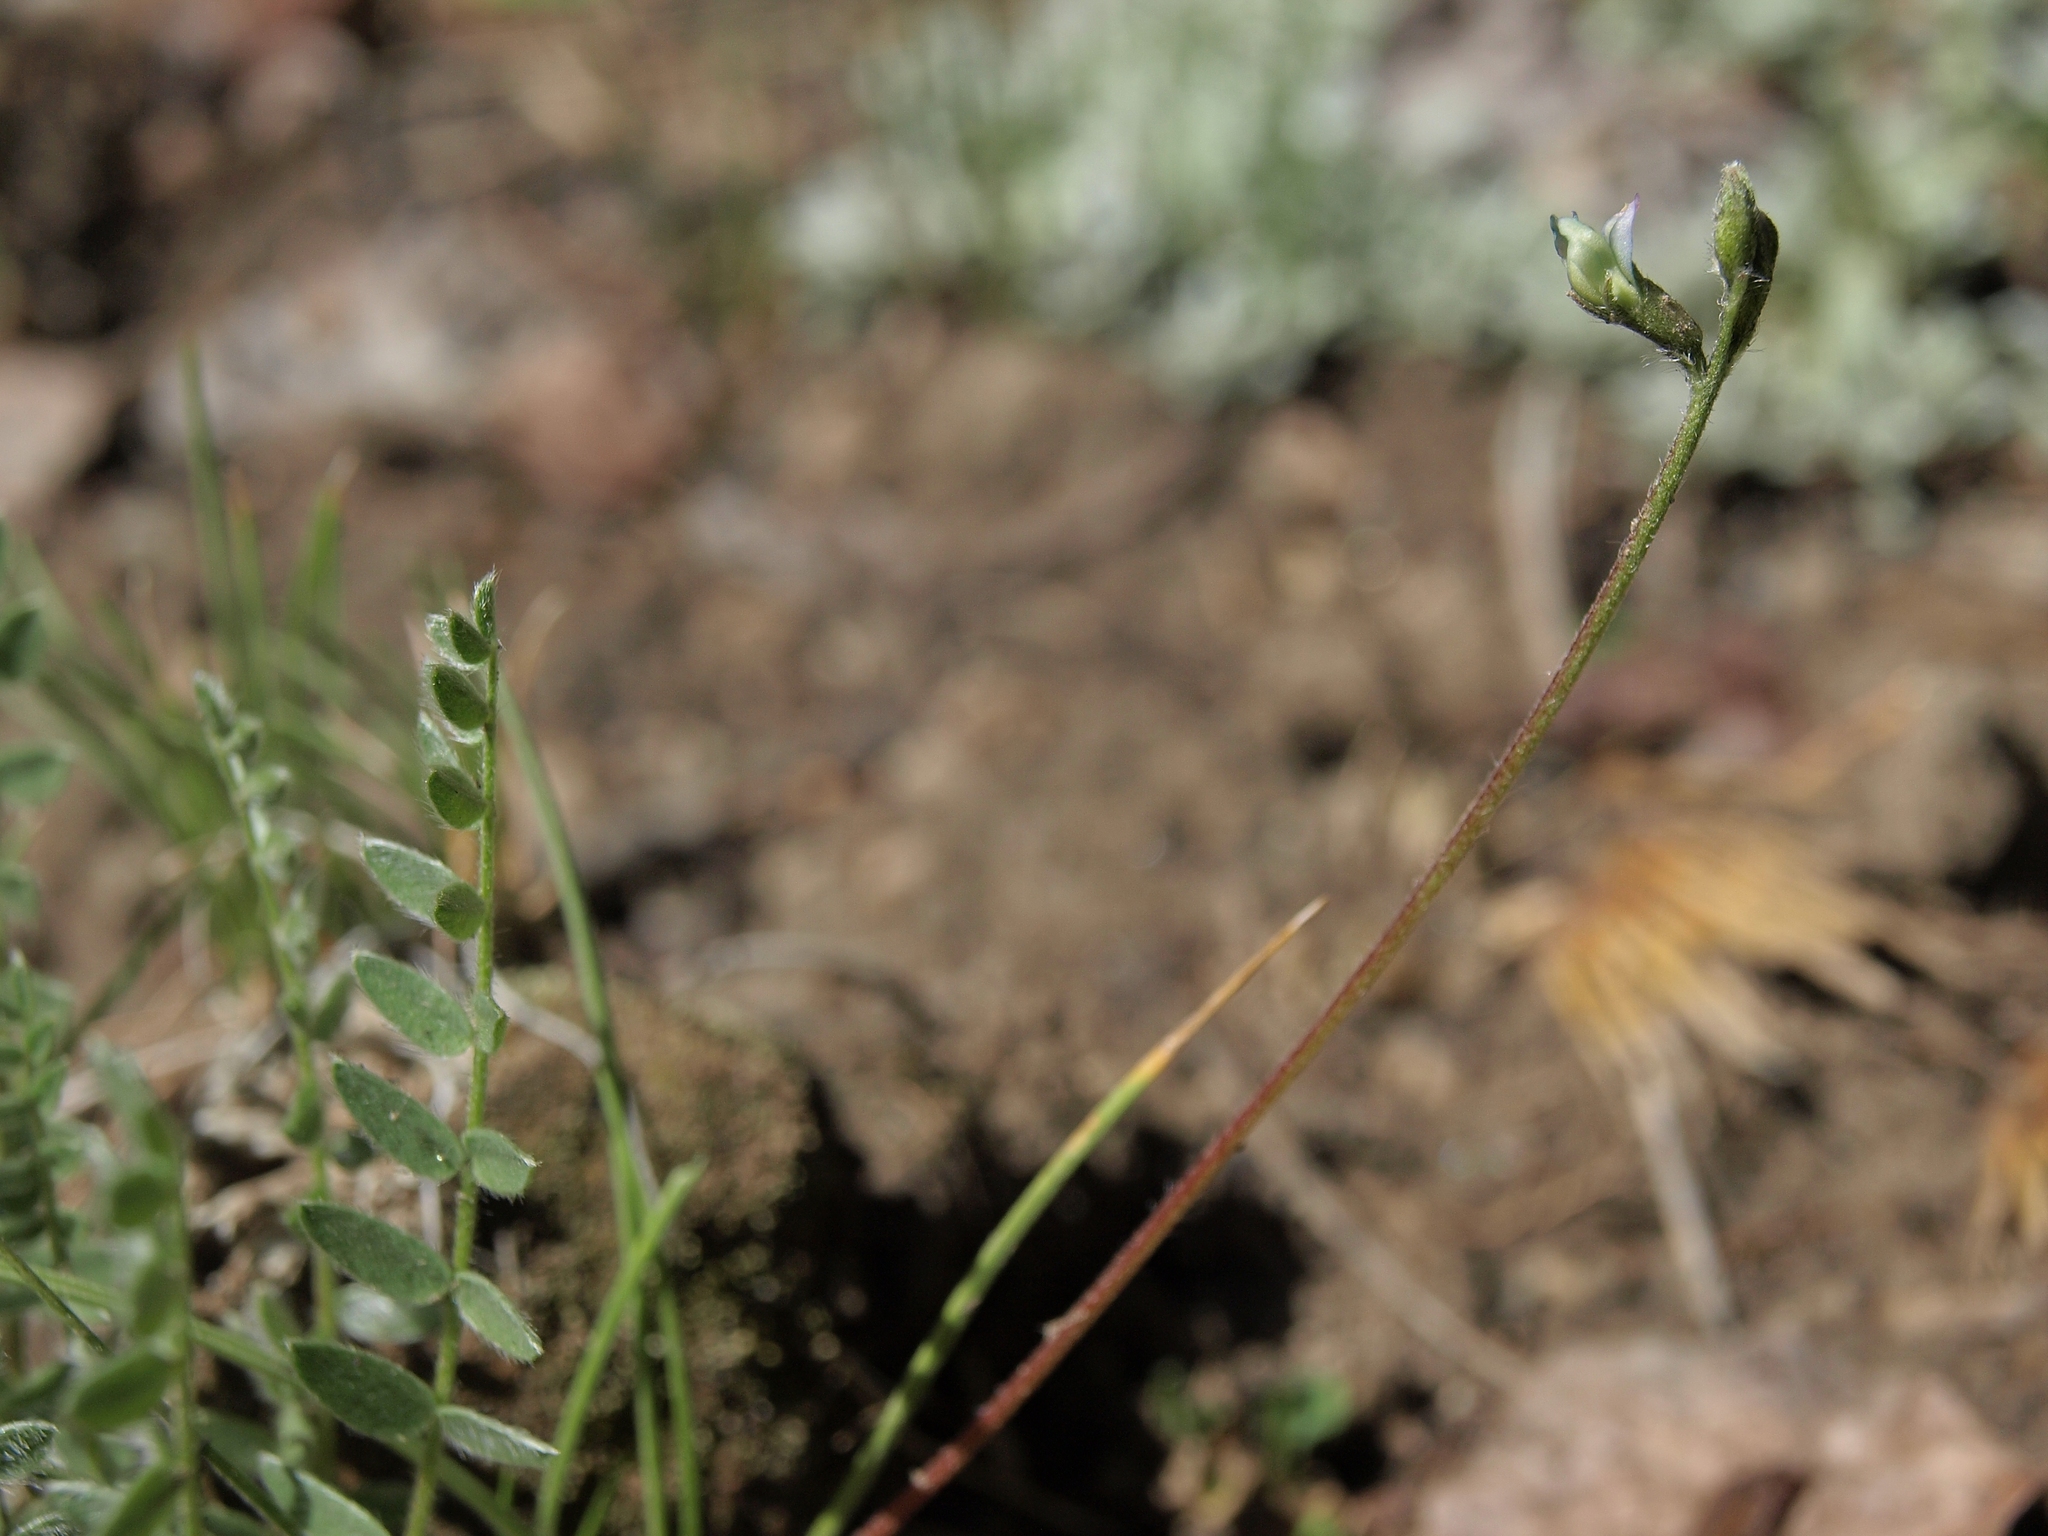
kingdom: Plantae
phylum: Tracheophyta
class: Magnoliopsida
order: Fabales
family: Fabaceae
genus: Oxytropis
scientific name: Oxytropis deflexa
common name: Stemmed oxytrope
